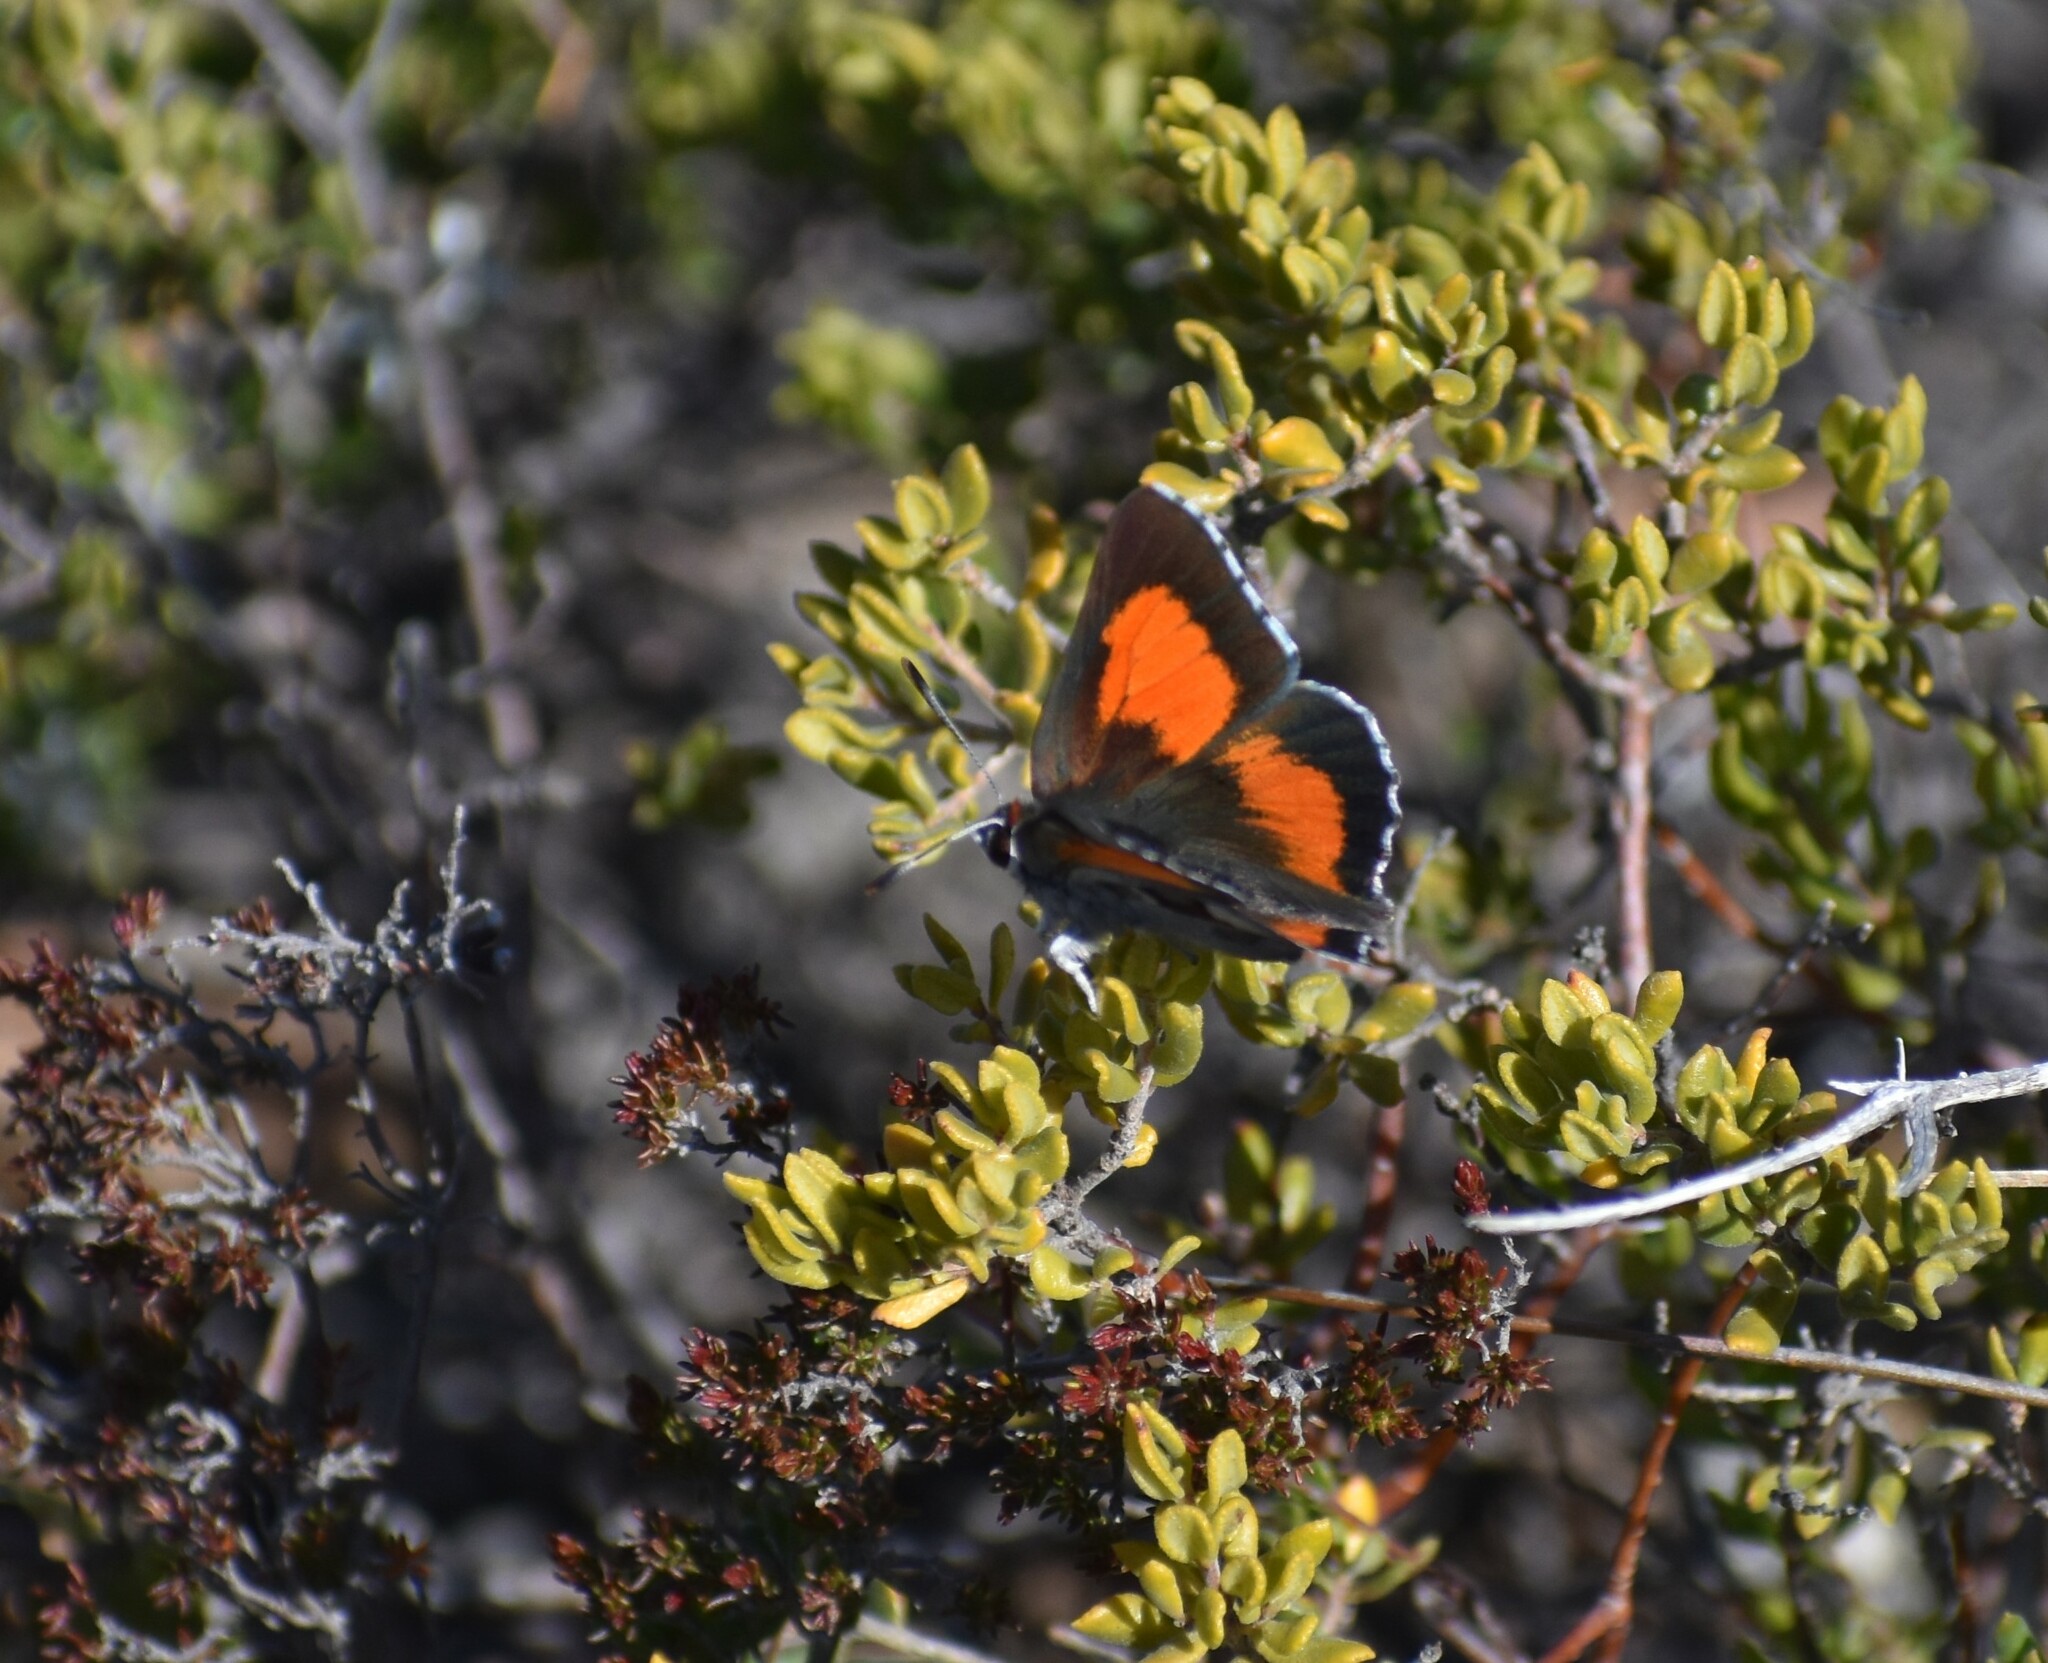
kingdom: Animalia
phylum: Arthropoda
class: Insecta
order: Lepidoptera
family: Lycaenidae
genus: Capys
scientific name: Capys alpheus
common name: Orange-banded protea butterfly
